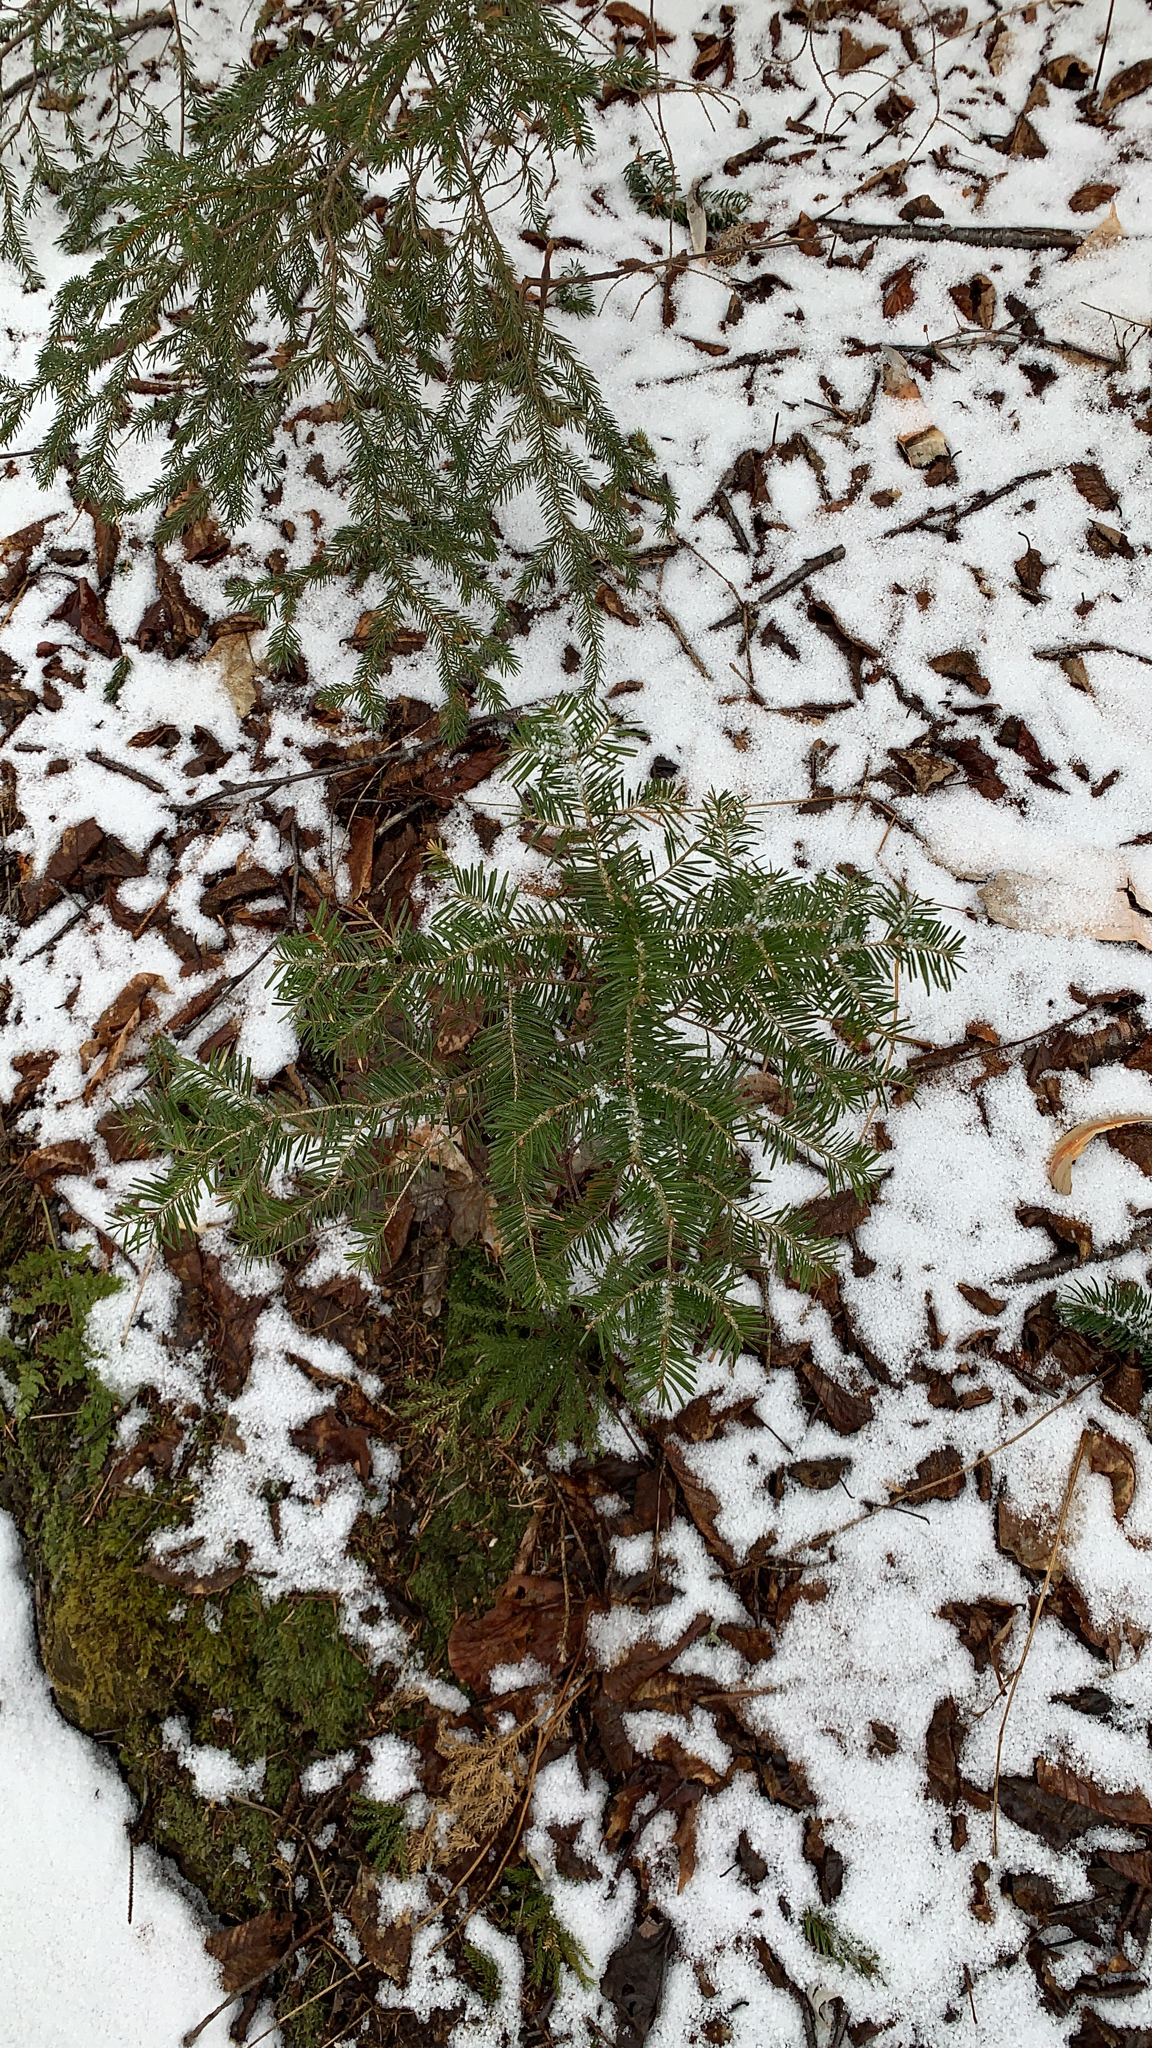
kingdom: Plantae
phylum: Tracheophyta
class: Pinopsida
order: Pinales
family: Pinaceae
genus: Abies
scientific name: Abies balsamea
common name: Balsam fir
